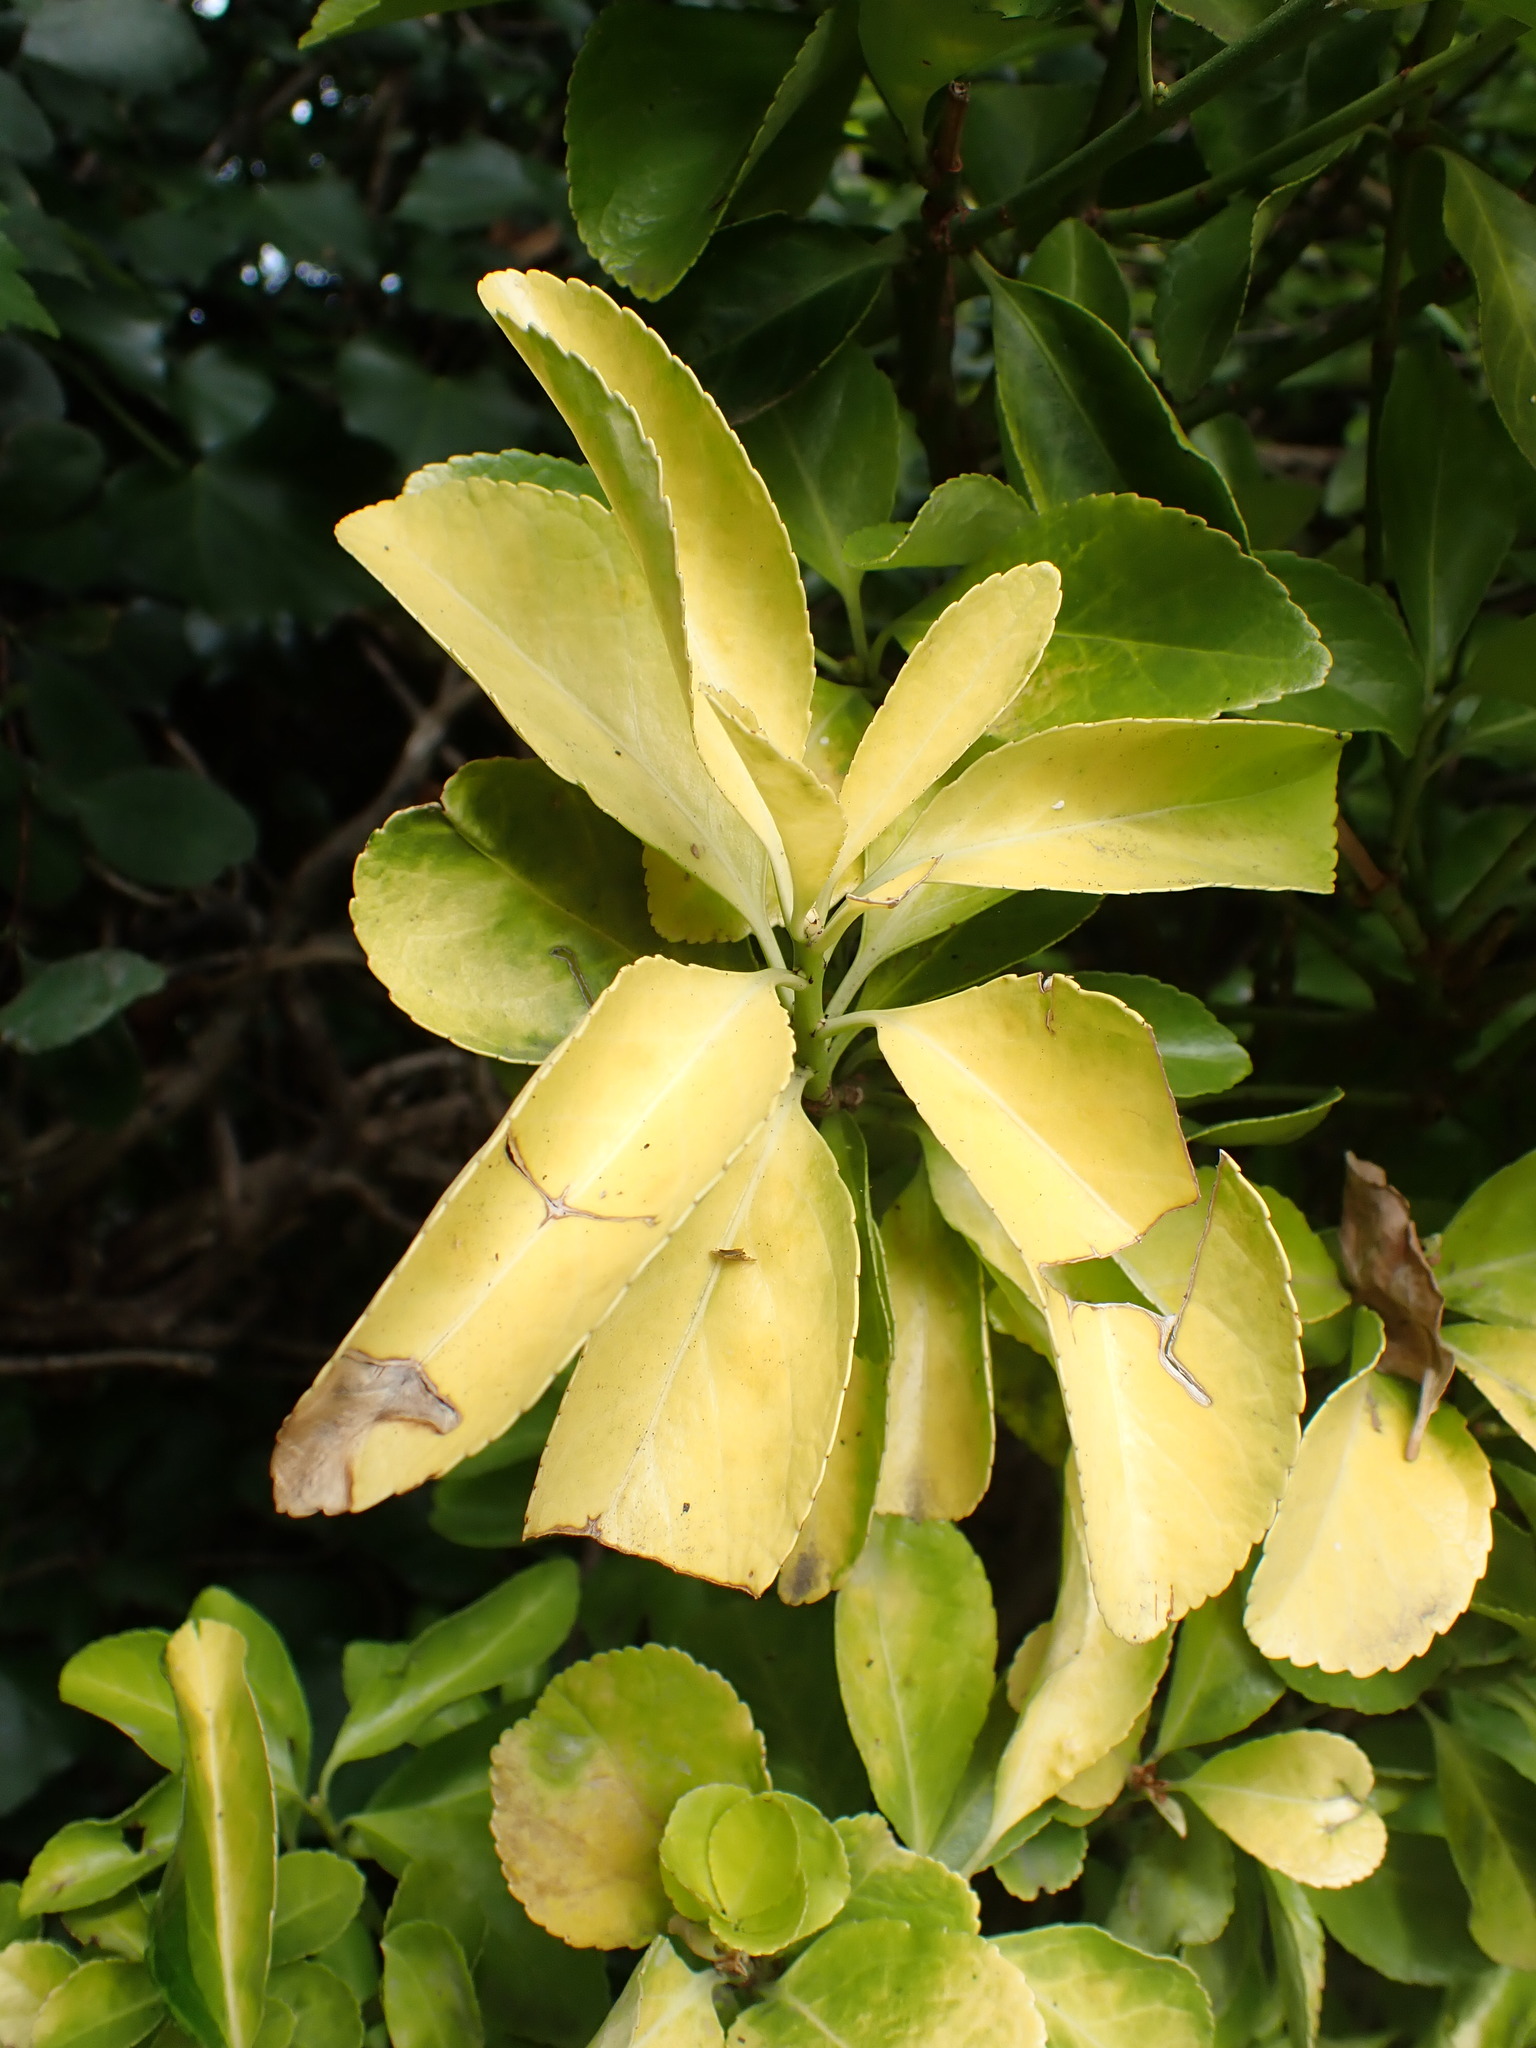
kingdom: Plantae
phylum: Tracheophyta
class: Magnoliopsida
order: Celastrales
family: Celastraceae
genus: Euonymus
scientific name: Euonymus japonicus
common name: Japanese spindletree
